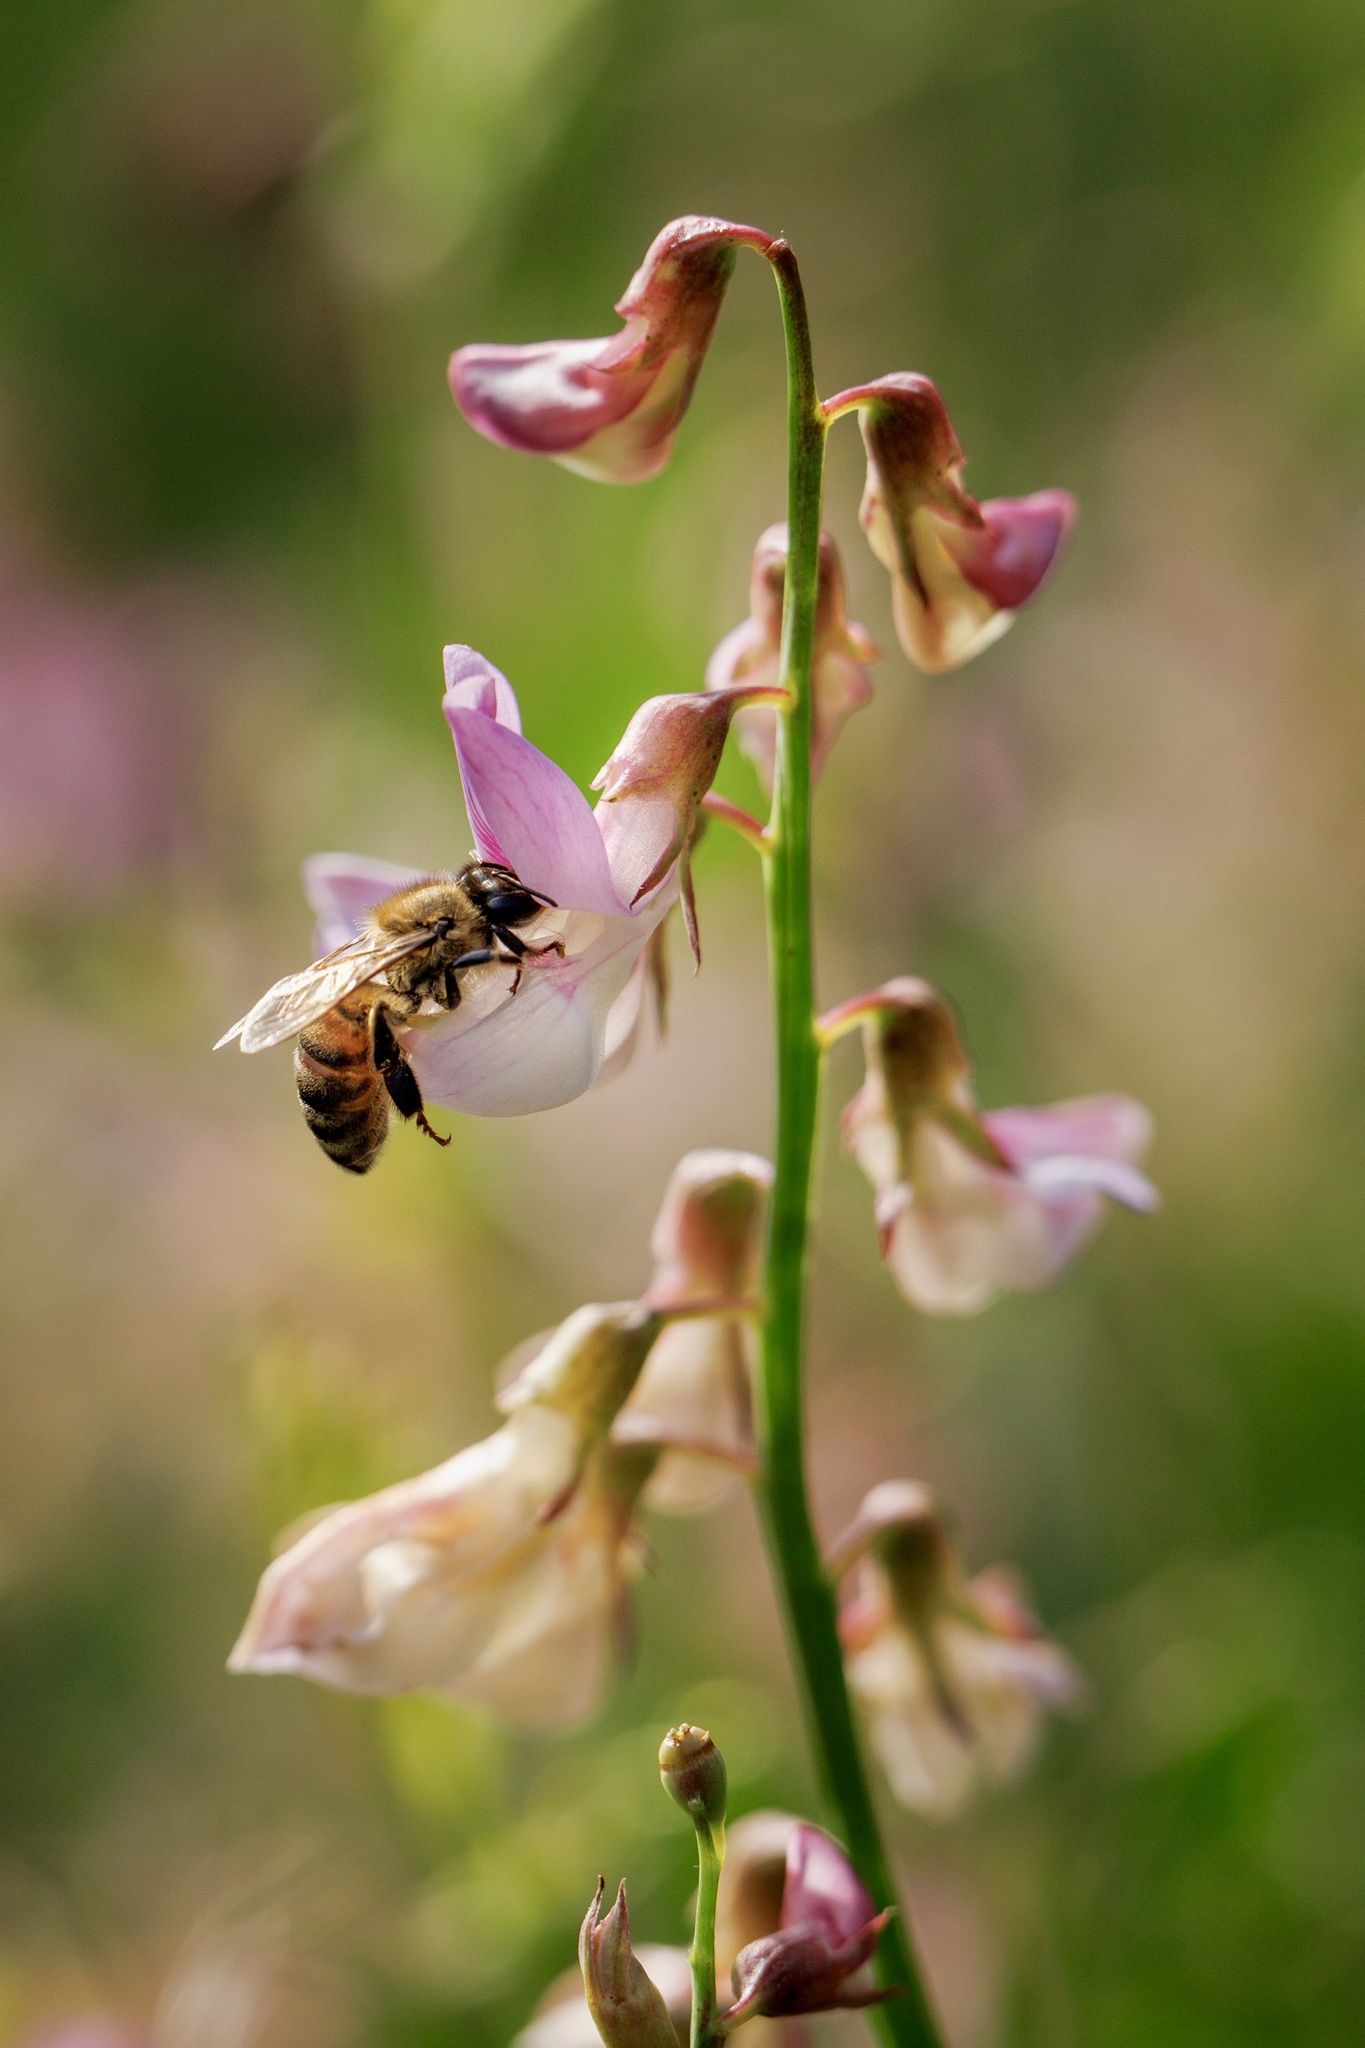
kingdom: Animalia
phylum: Arthropoda
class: Insecta
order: Hymenoptera
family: Apidae
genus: Apis
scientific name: Apis mellifera
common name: Honey bee
